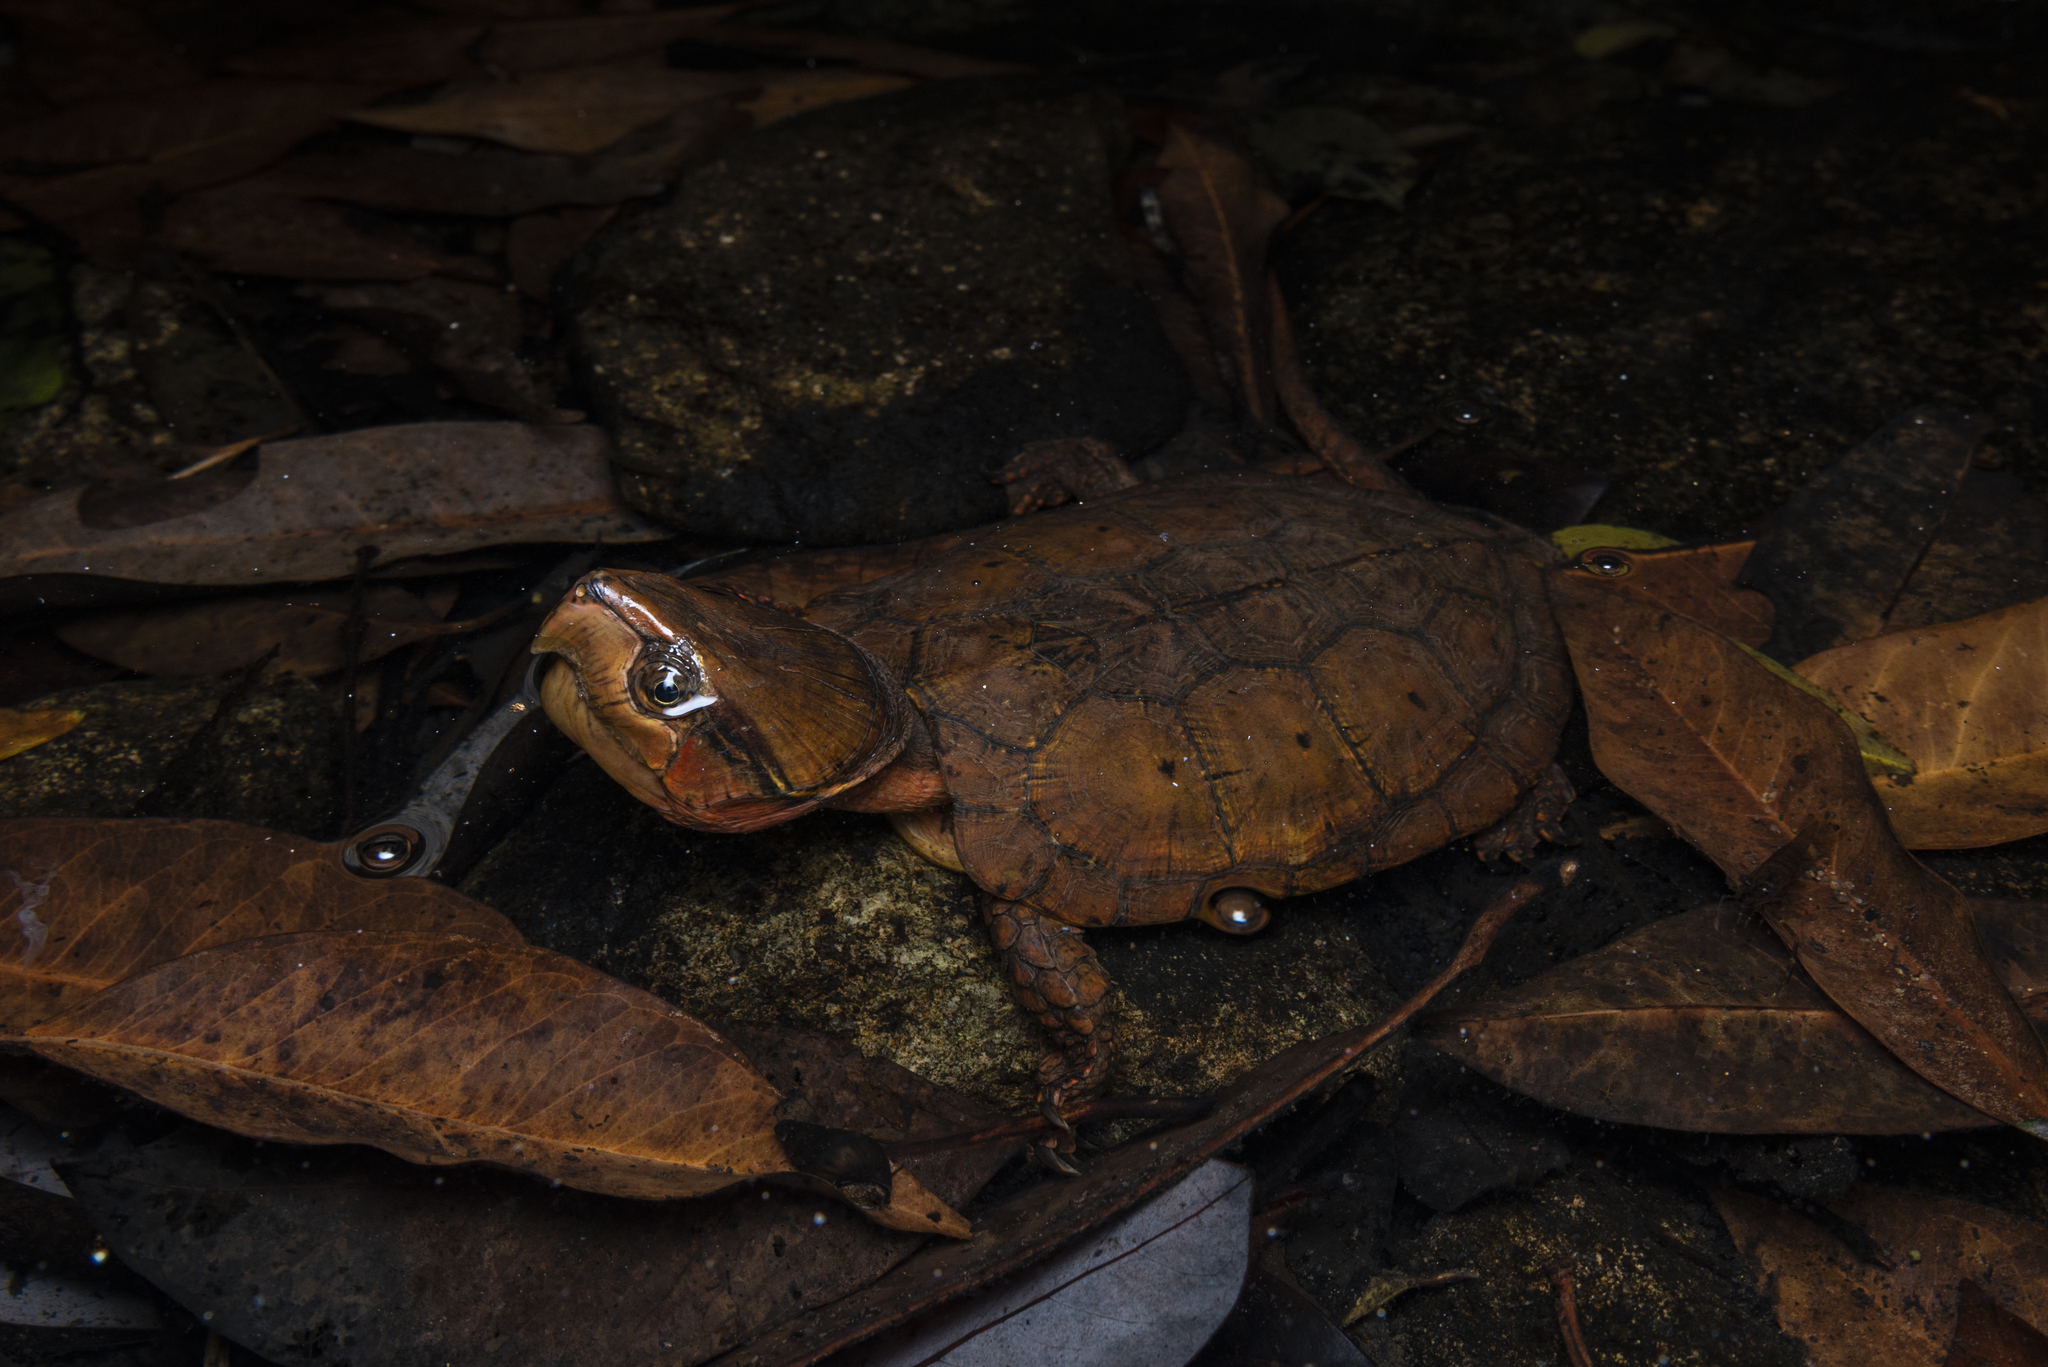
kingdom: Animalia
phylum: Chordata
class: Testudines
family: Platysternidae
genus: Platysternon
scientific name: Platysternon megacephalum
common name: Big-headed turtle
